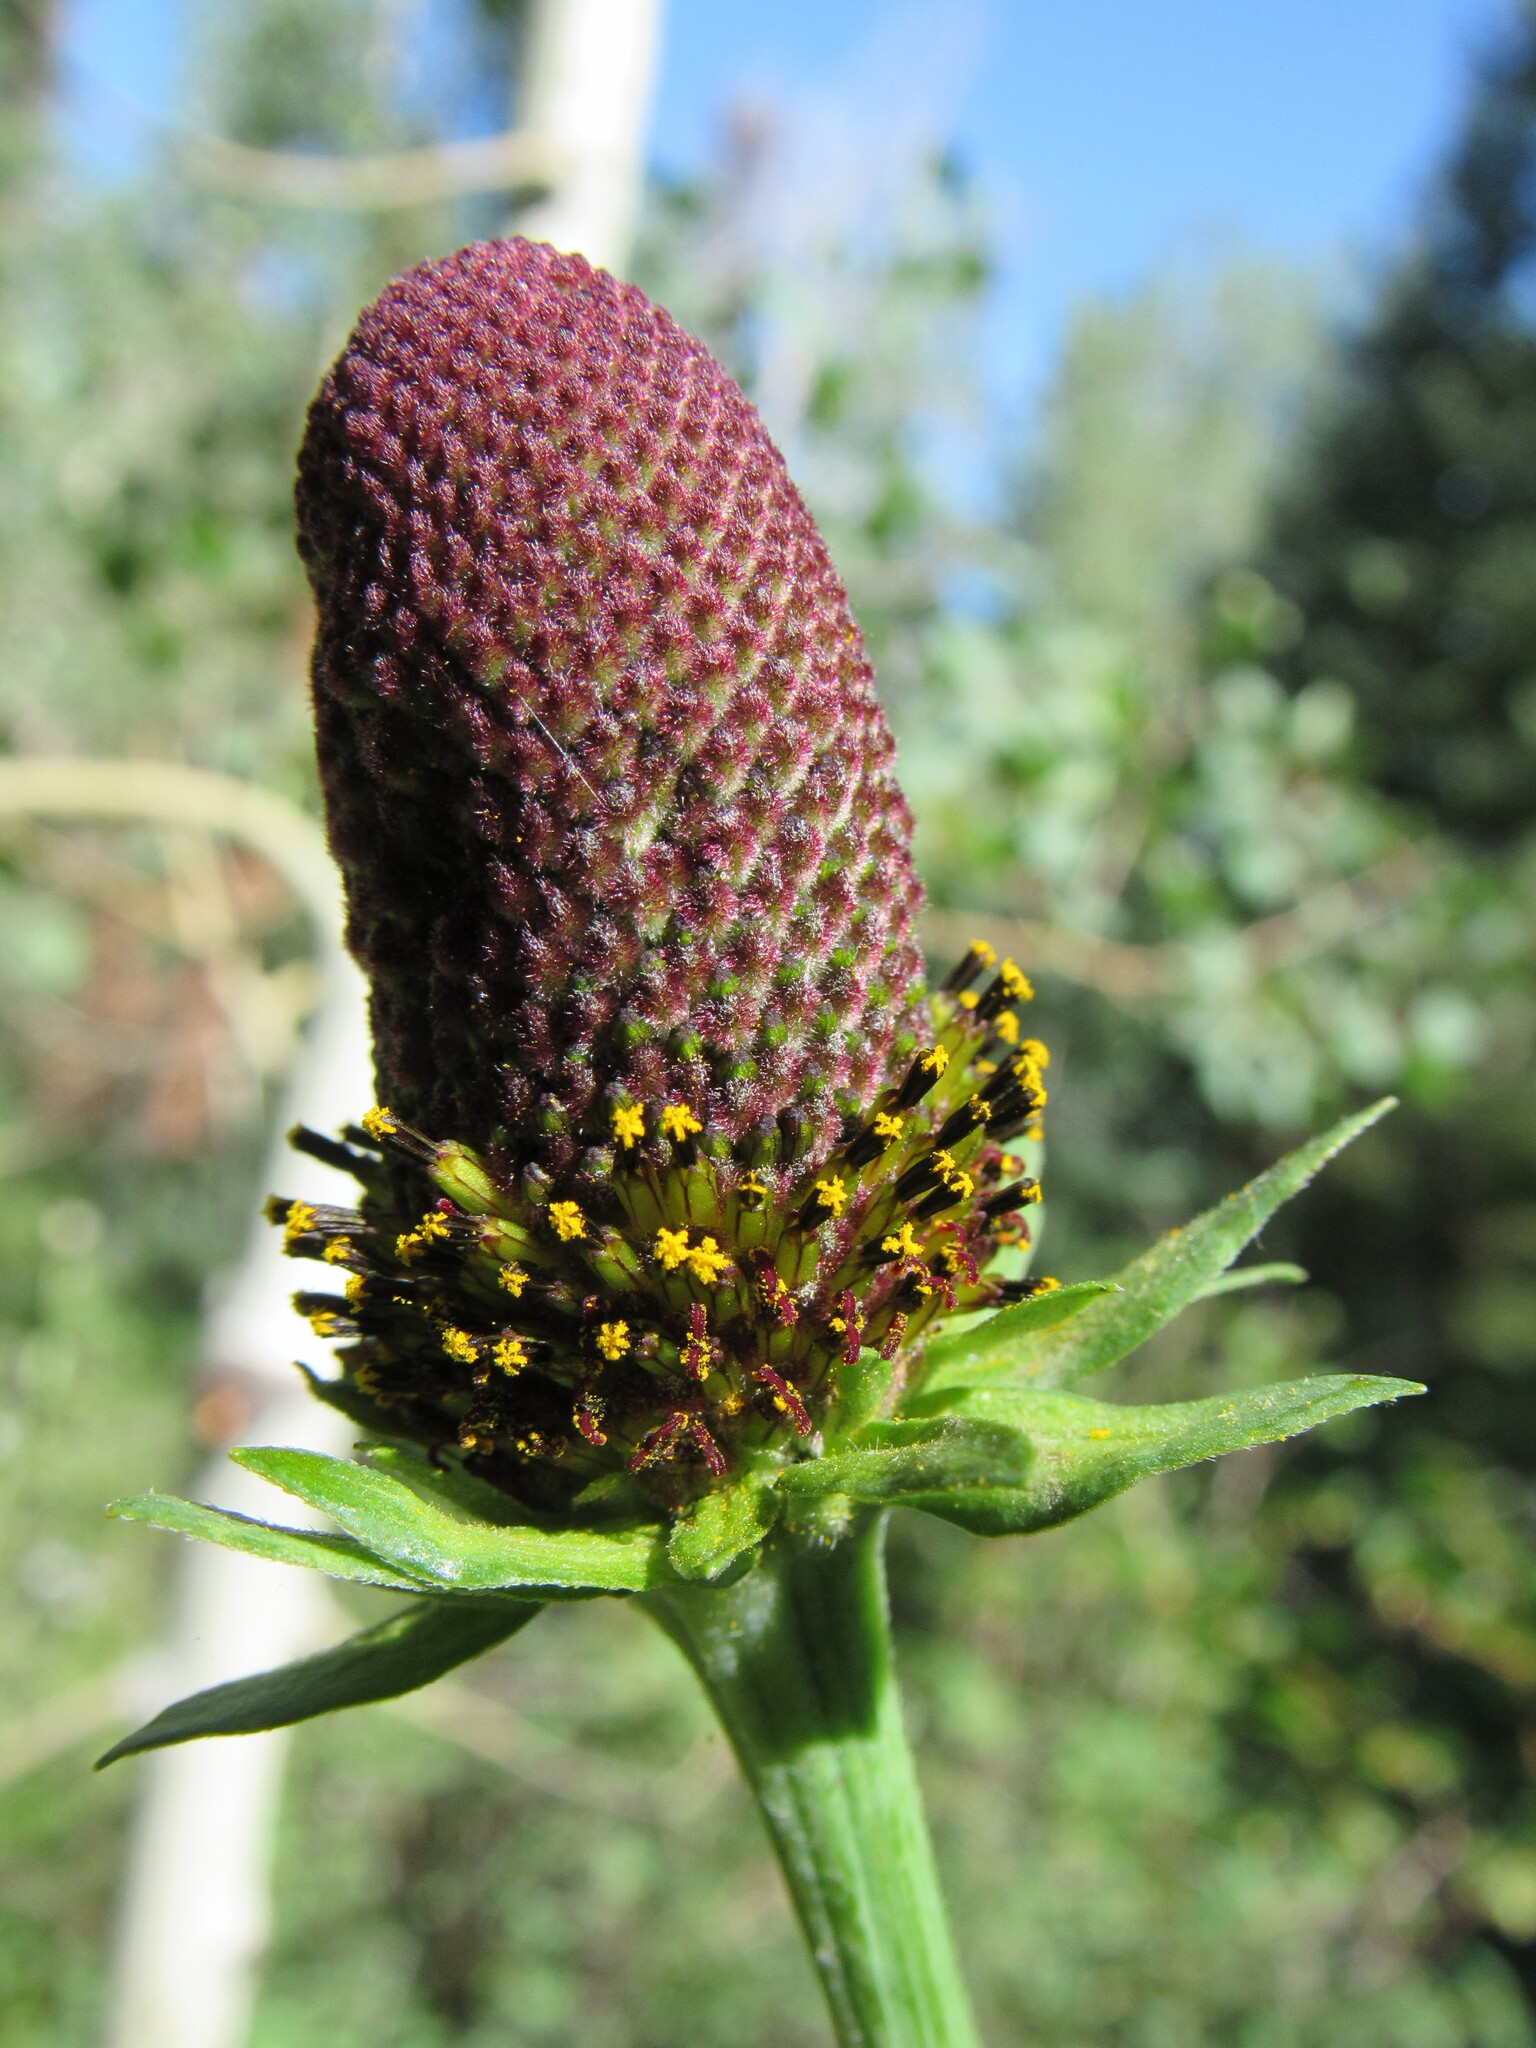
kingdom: Plantae
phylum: Tracheophyta
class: Magnoliopsida
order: Asterales
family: Asteraceae
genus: Rudbeckia
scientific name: Rudbeckia occidentalis
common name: Western coneflower
